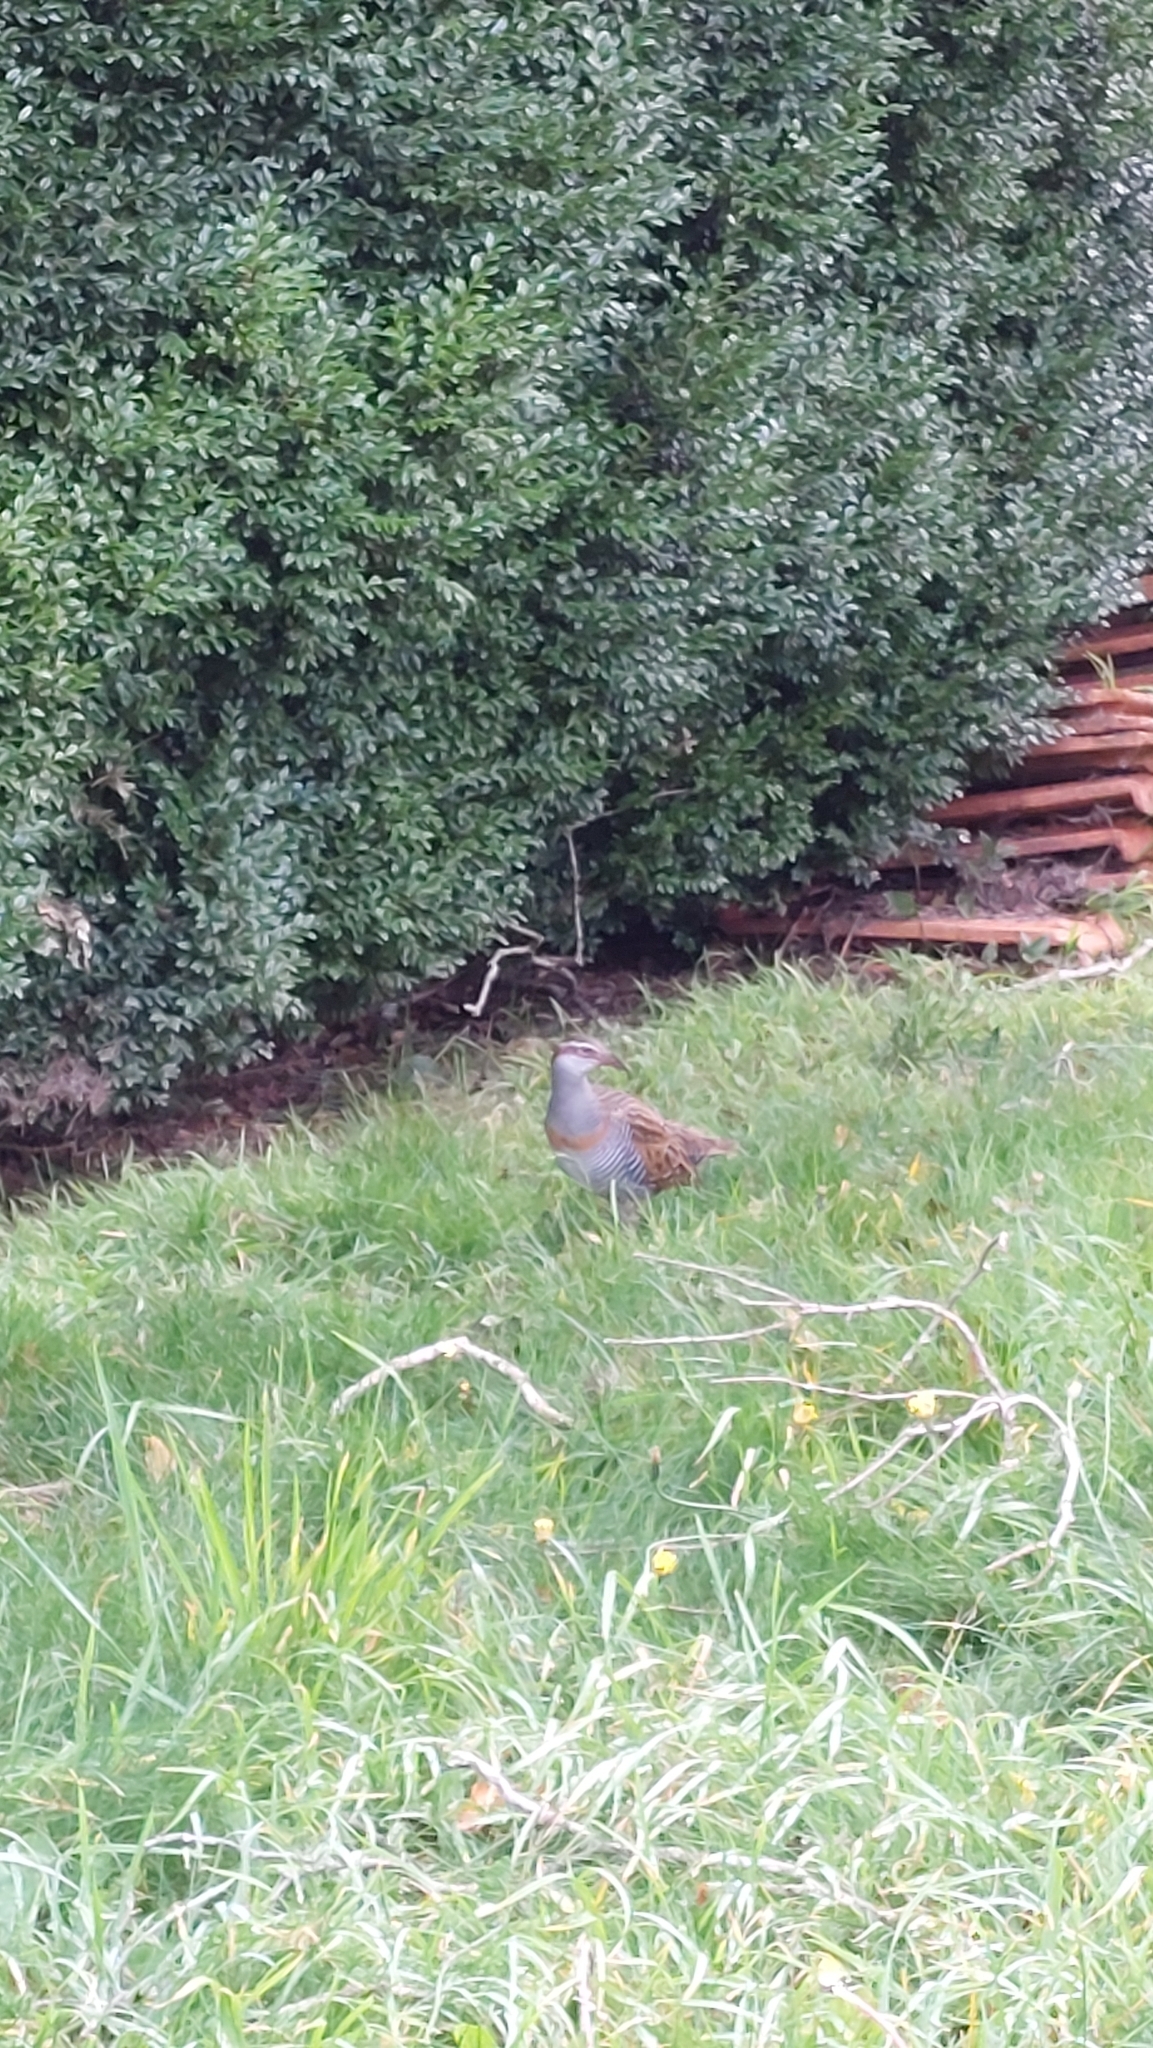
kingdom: Animalia
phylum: Chordata
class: Aves
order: Gruiformes
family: Rallidae
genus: Gallirallus
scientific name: Gallirallus philippensis
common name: Buff-banded rail
